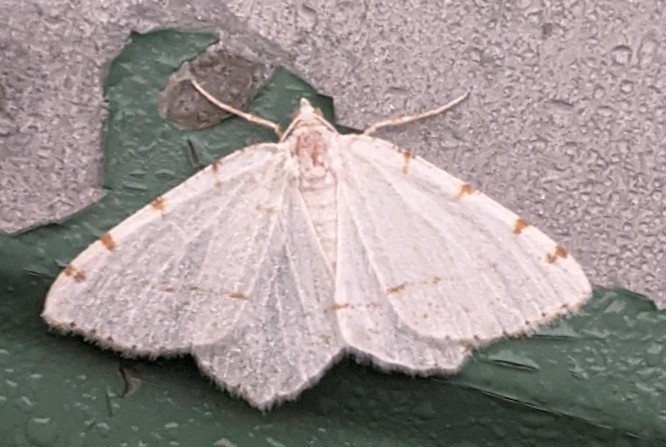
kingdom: Animalia
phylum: Arthropoda
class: Insecta
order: Lepidoptera
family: Geometridae
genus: Macaria
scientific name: Macaria pustularia
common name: Lesser maple spanworm moth
